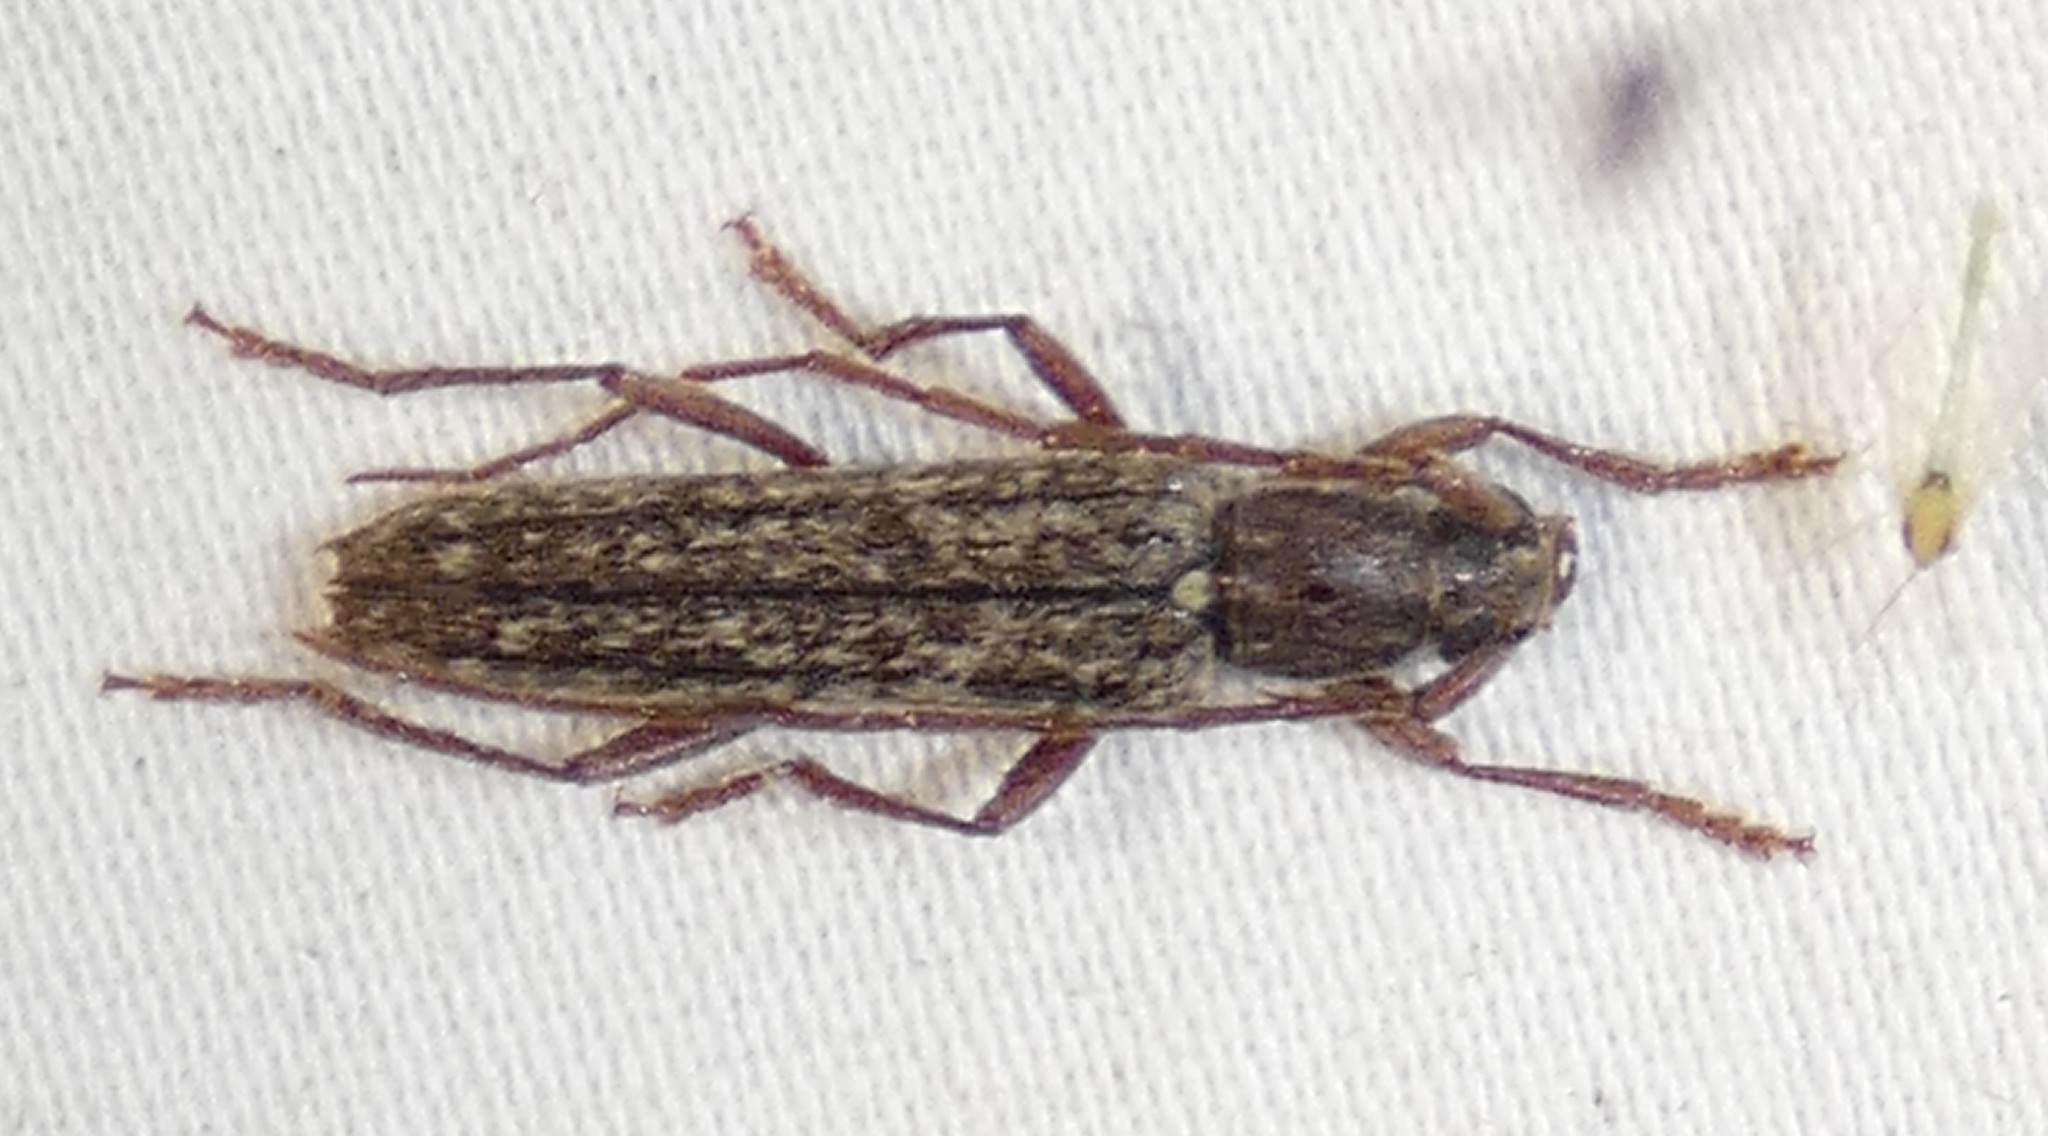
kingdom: Animalia
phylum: Arthropoda
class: Insecta
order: Coleoptera
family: Cerambycidae
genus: Anelaphus
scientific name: Anelaphus villosus
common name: Twig pruner
